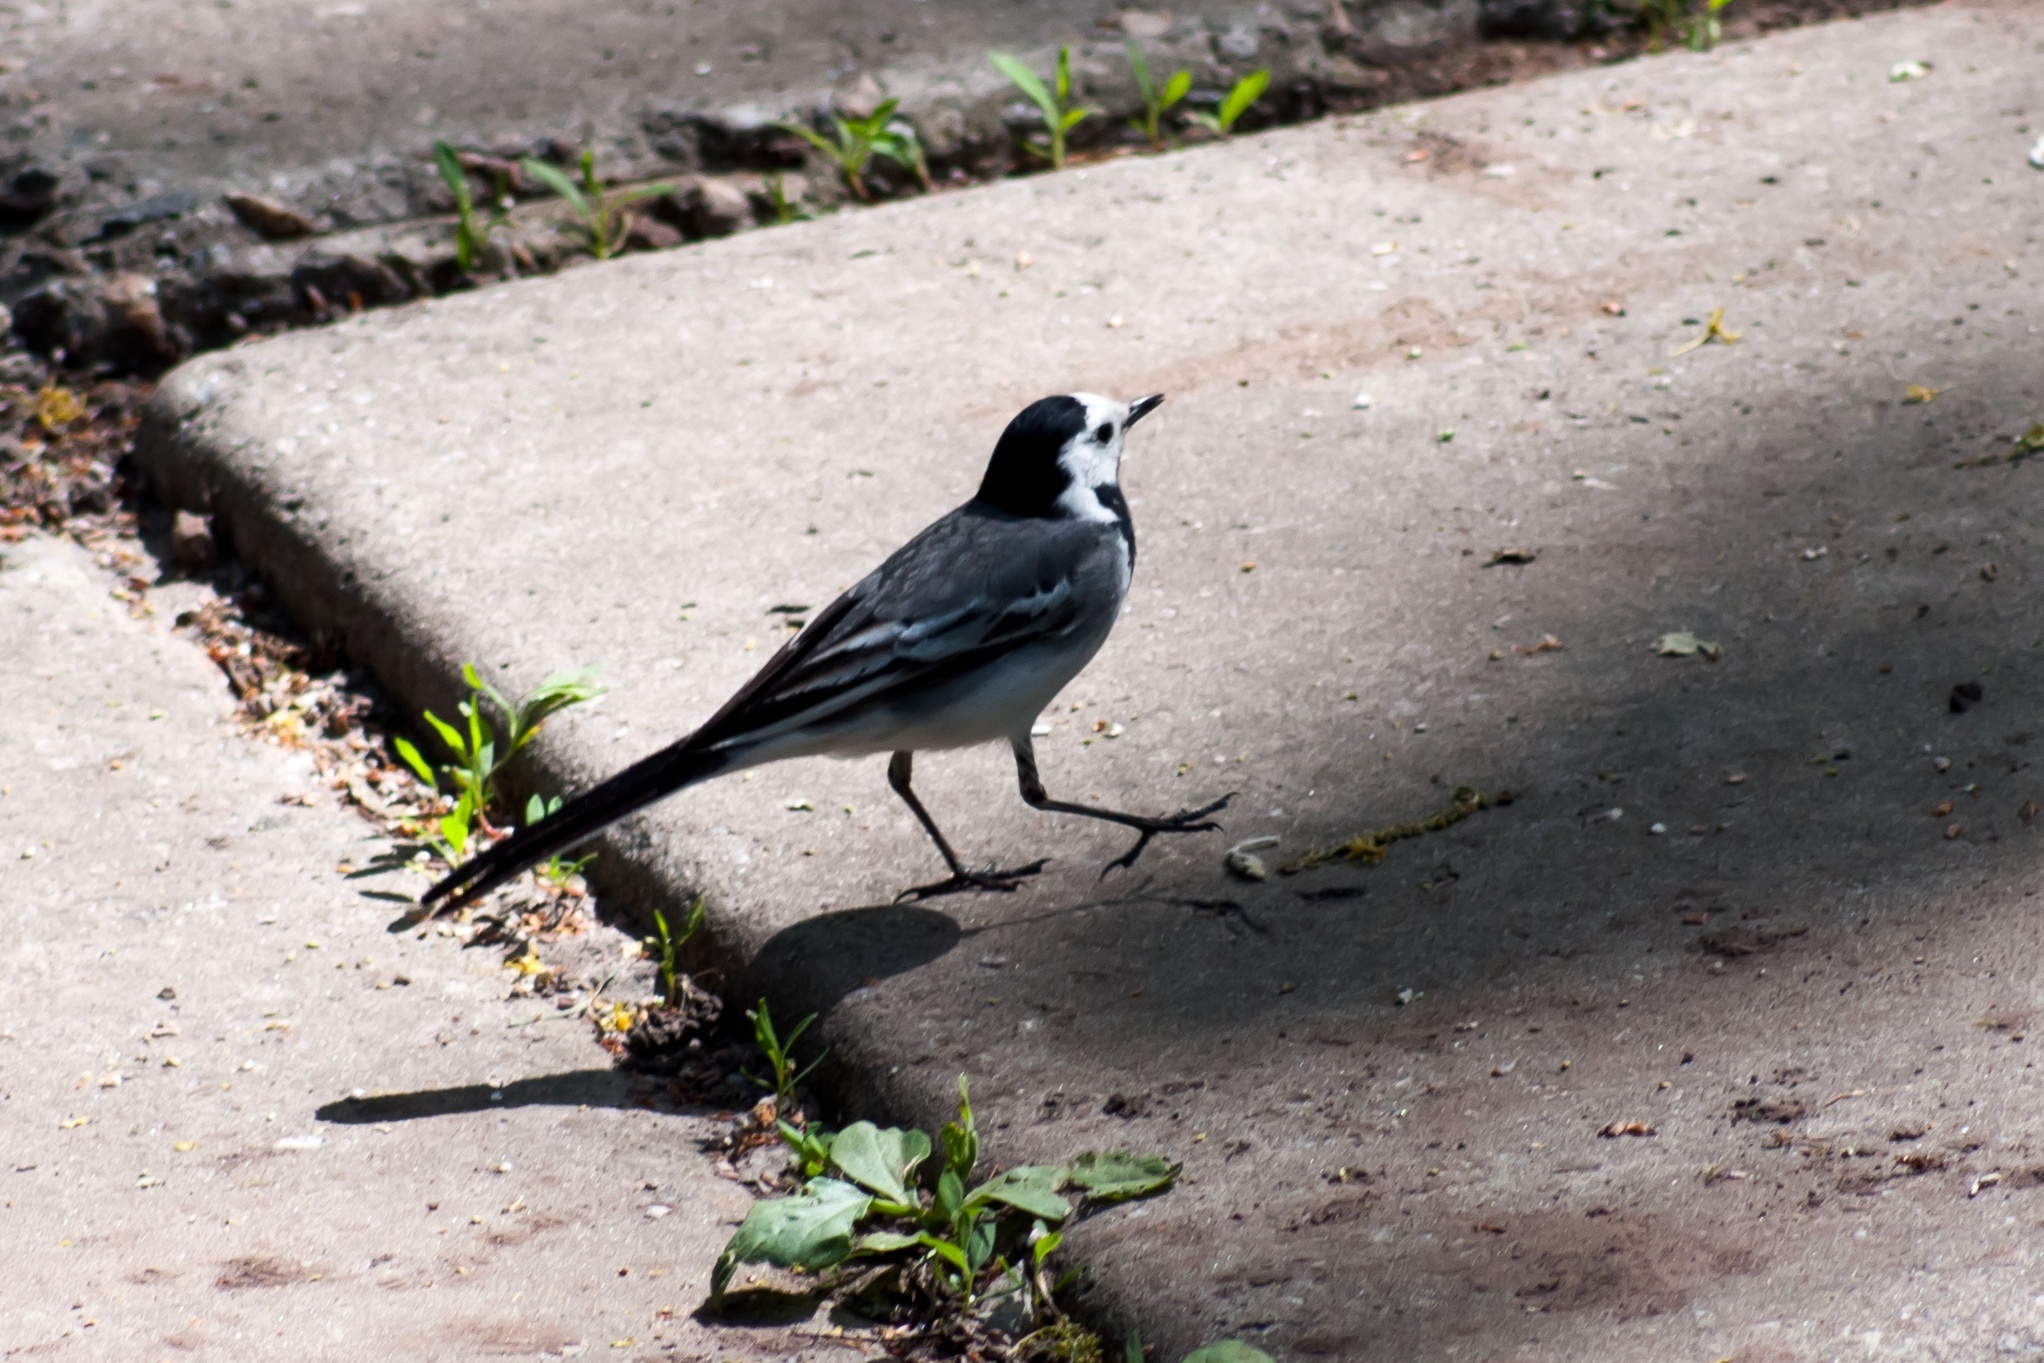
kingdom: Animalia
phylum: Chordata
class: Aves
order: Passeriformes
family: Motacillidae
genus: Motacilla
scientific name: Motacilla alba
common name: White wagtail
